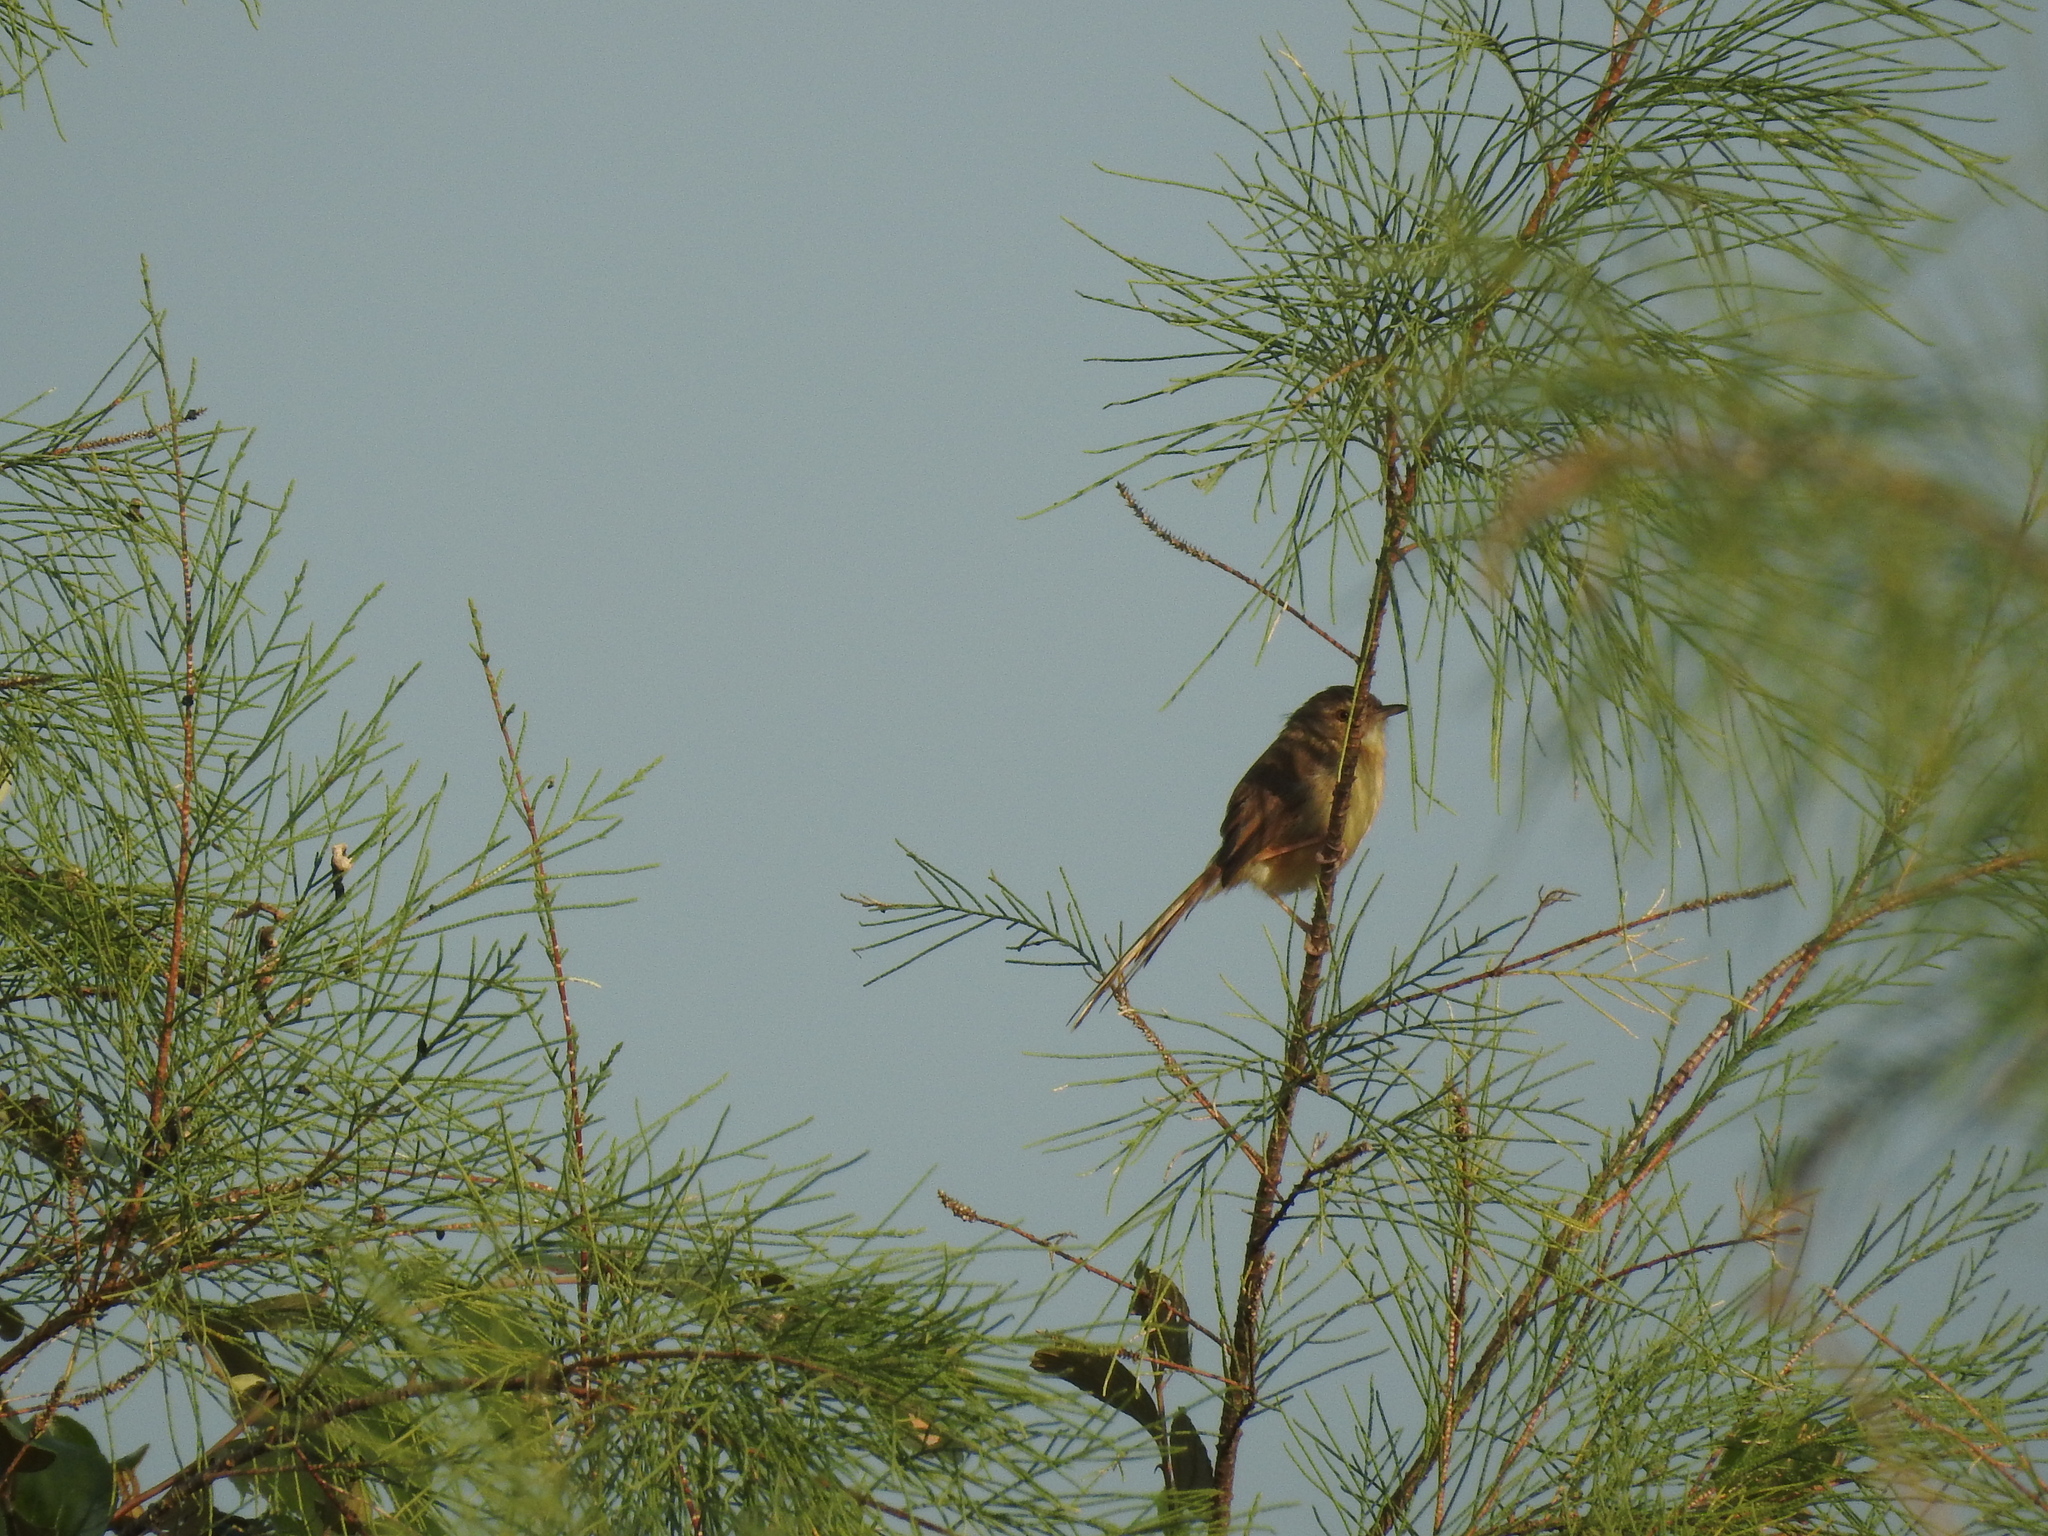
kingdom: Animalia
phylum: Chordata
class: Aves
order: Passeriformes
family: Cisticolidae
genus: Prinia
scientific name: Prinia inornata
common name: Plain prinia
